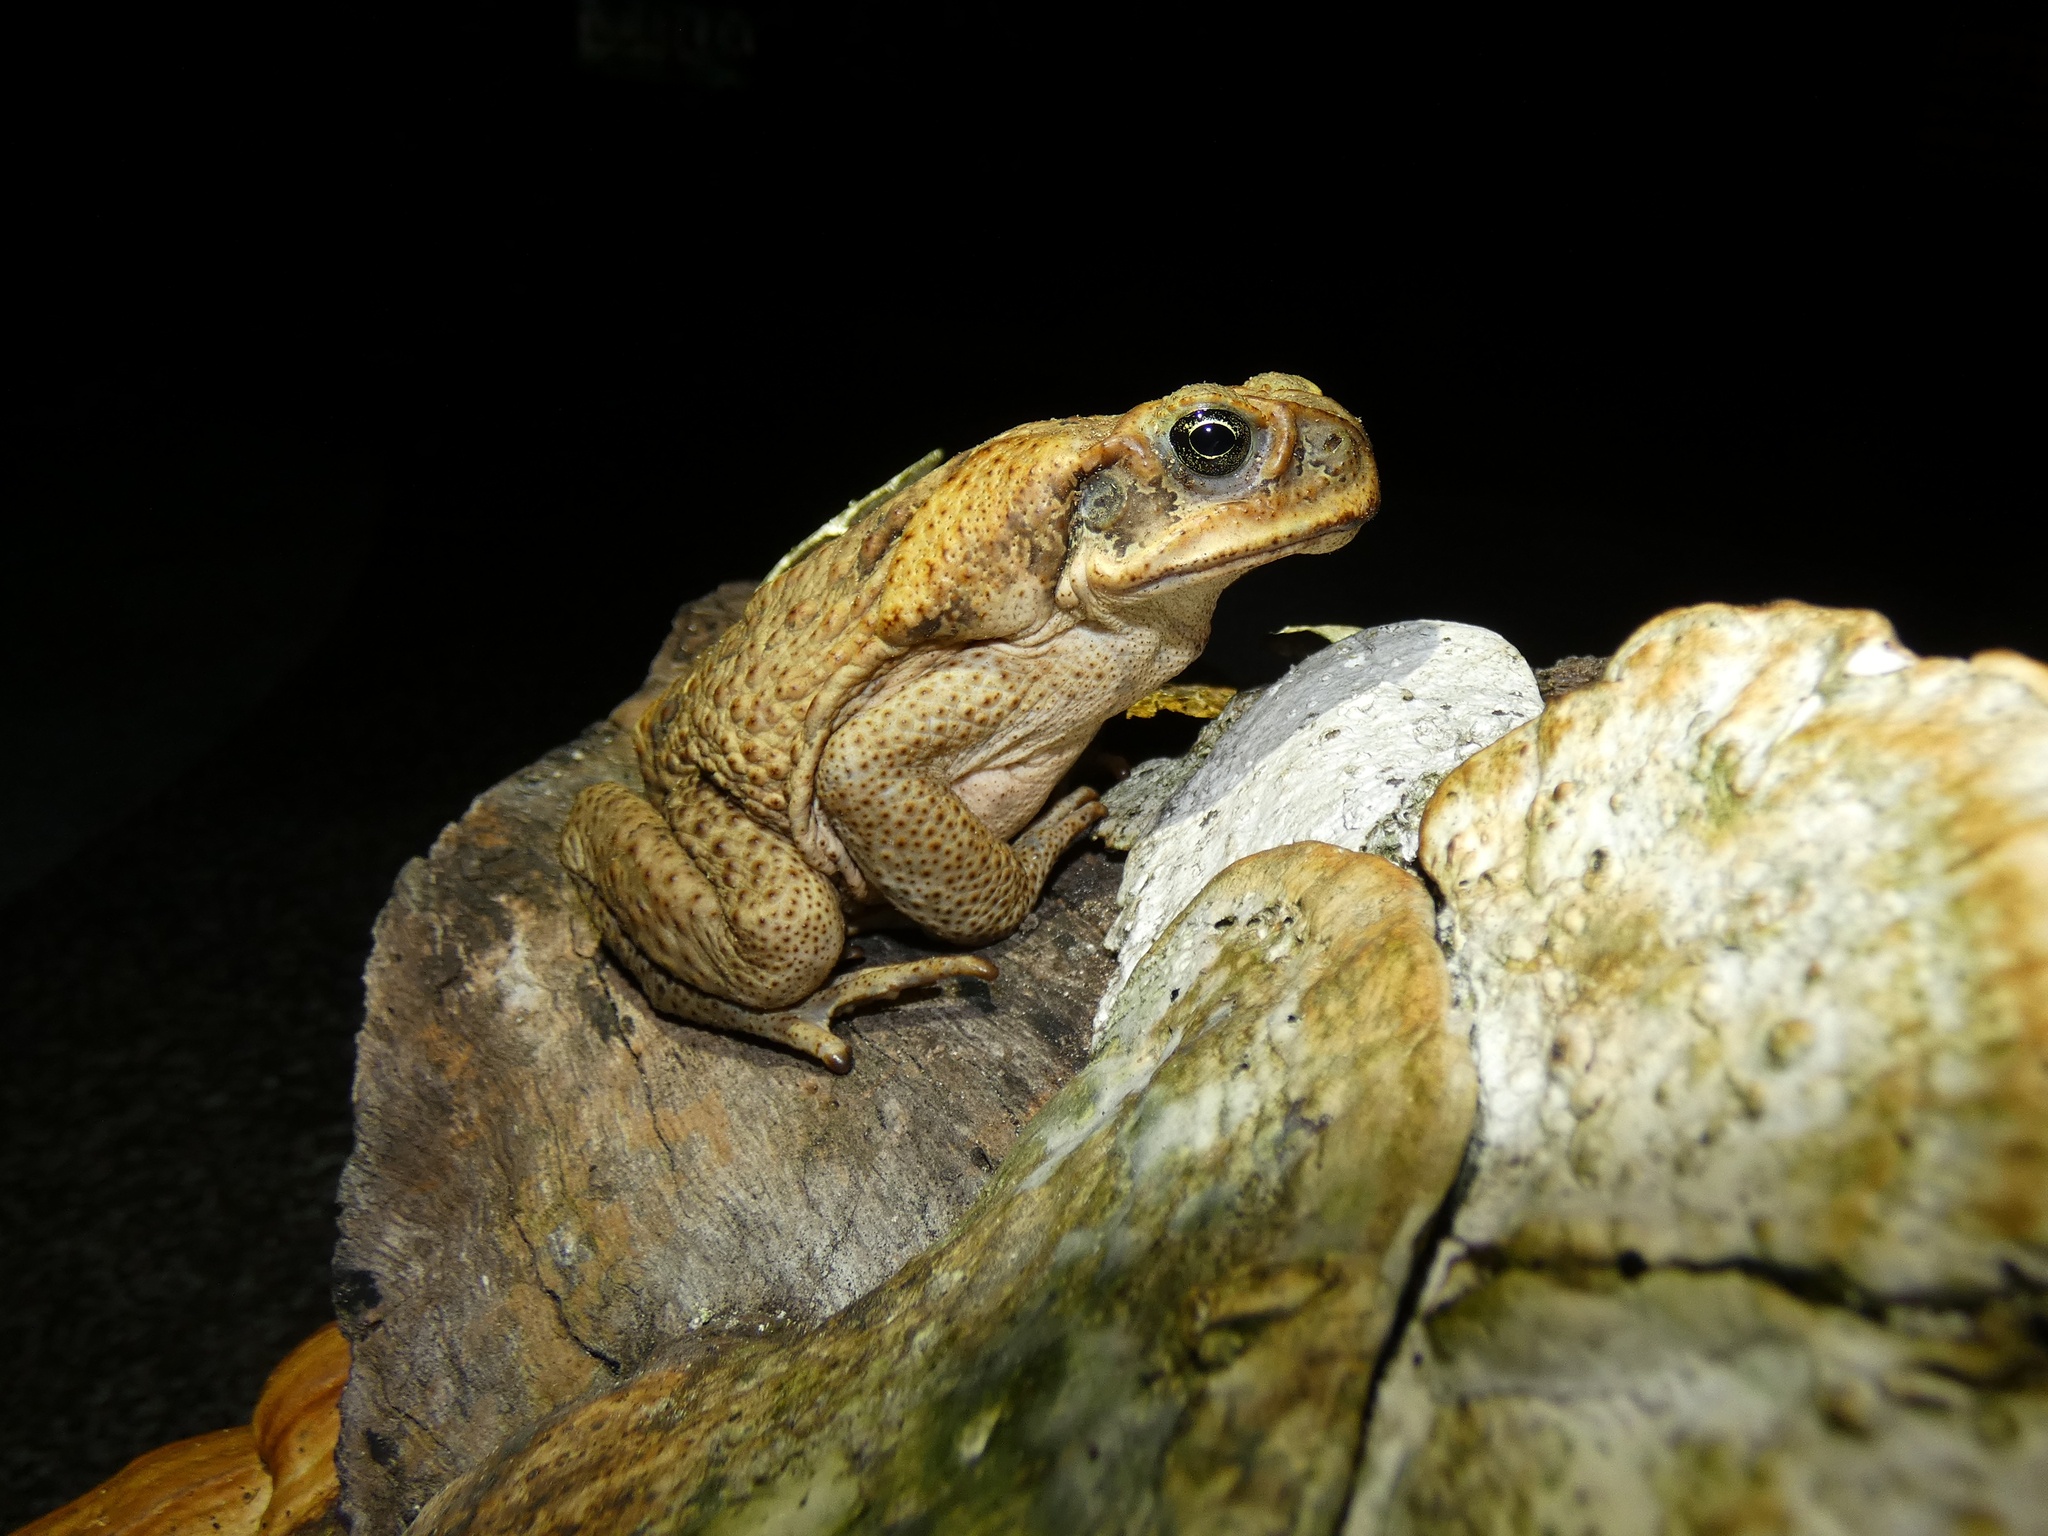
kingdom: Animalia
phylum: Chordata
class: Amphibia
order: Anura
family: Bufonidae
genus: Rhinella
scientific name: Rhinella marina
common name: Cane toad
